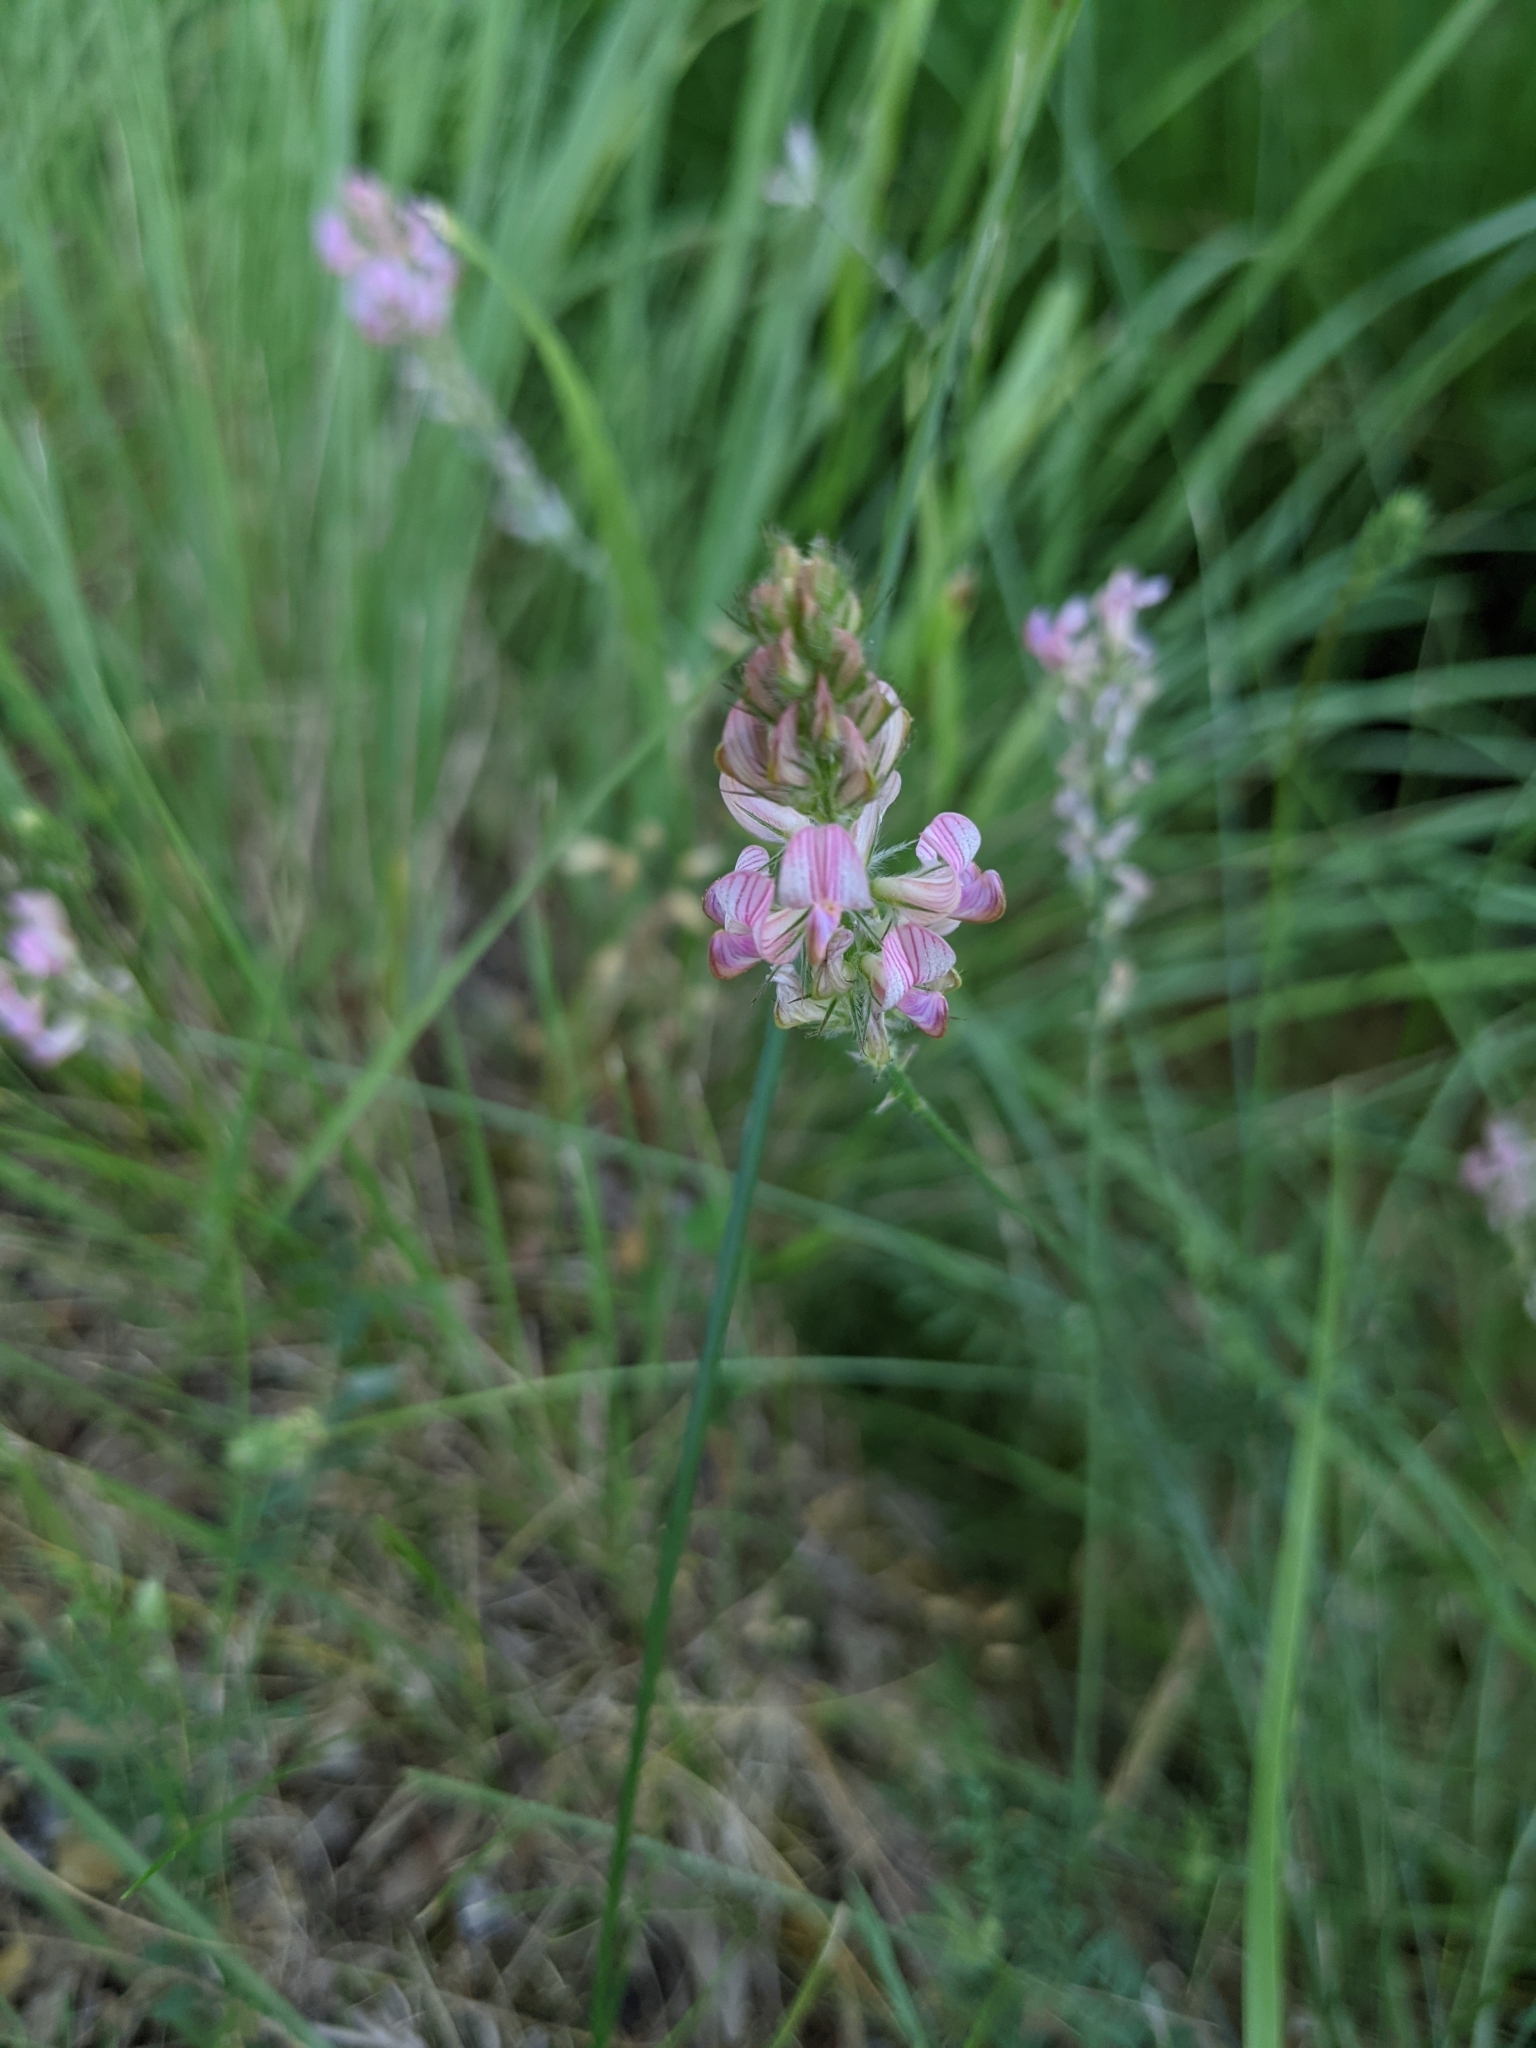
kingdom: Plantae
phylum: Tracheophyta
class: Magnoliopsida
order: Fabales
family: Fabaceae
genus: Onobrychis
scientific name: Onobrychis supina
